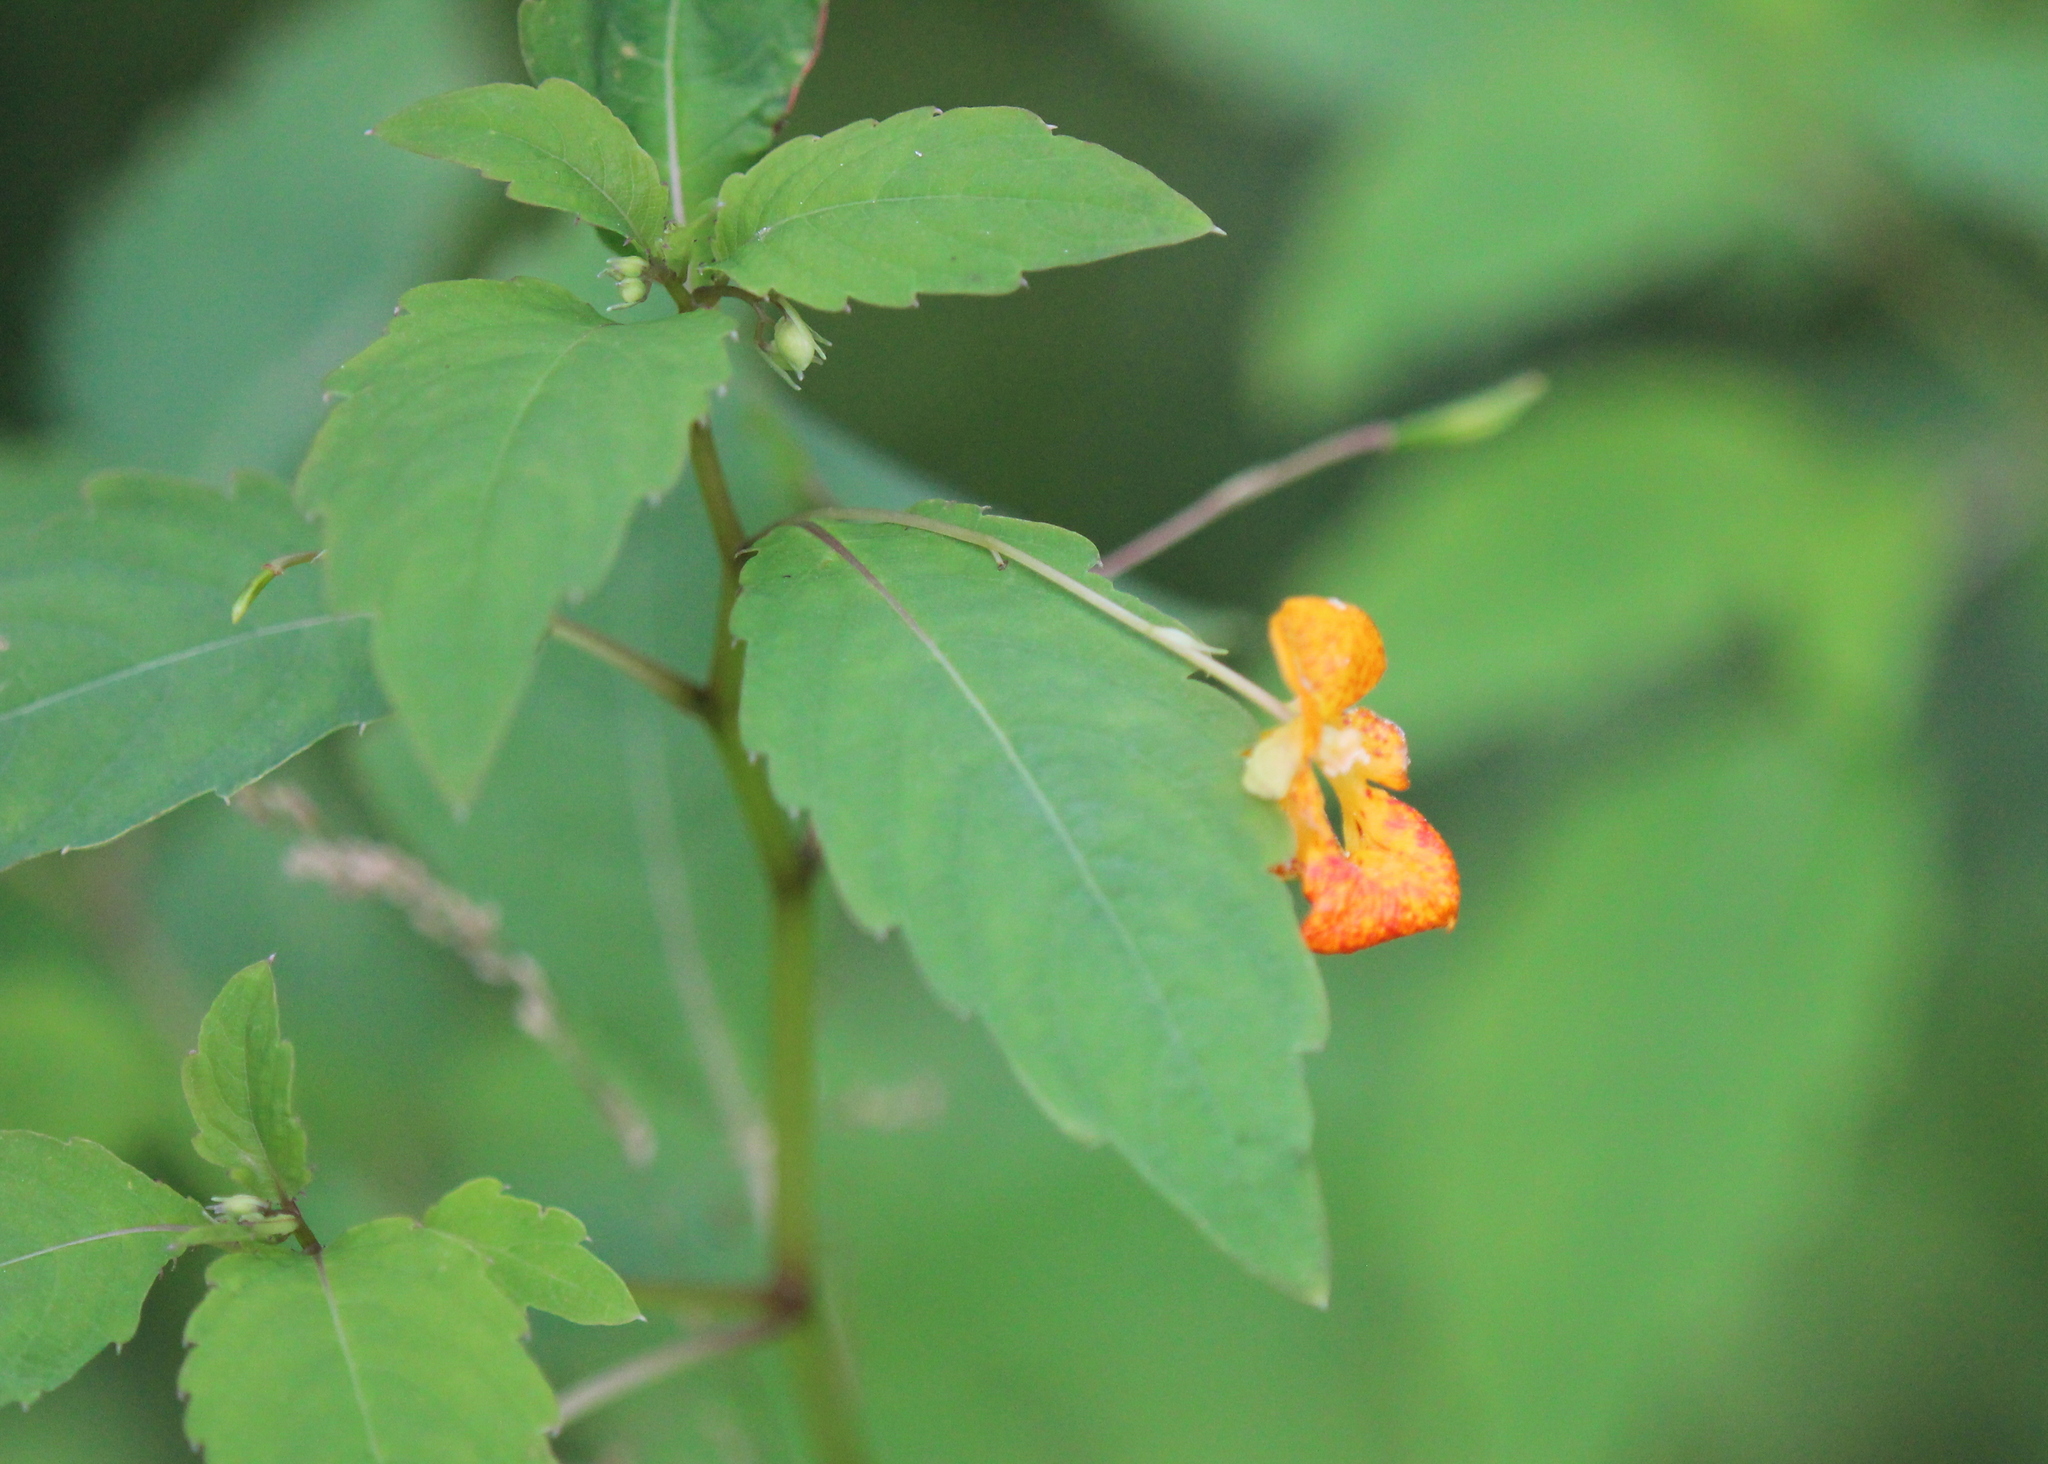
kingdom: Plantae
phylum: Tracheophyta
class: Magnoliopsida
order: Ericales
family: Balsaminaceae
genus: Impatiens
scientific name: Impatiens capensis
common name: Orange balsam
